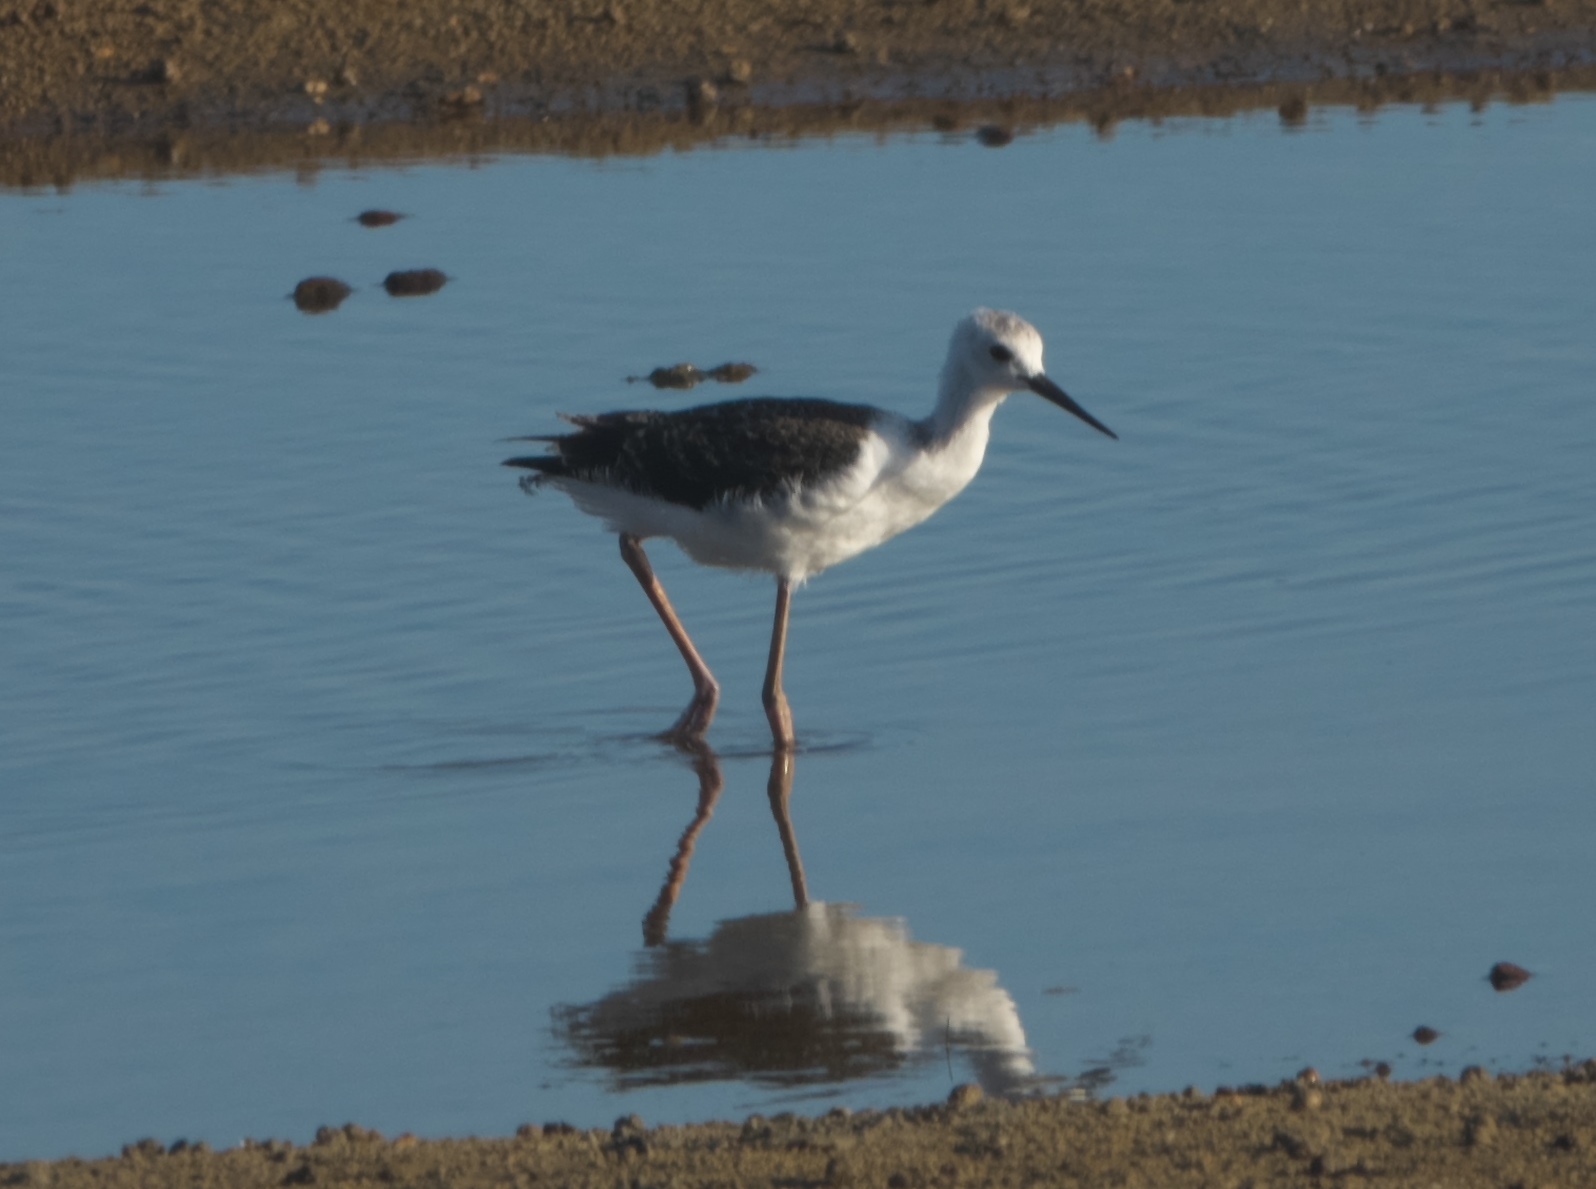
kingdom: Animalia
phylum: Chordata
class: Aves
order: Charadriiformes
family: Recurvirostridae
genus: Himantopus
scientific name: Himantopus leucocephalus
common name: White-headed stilt
